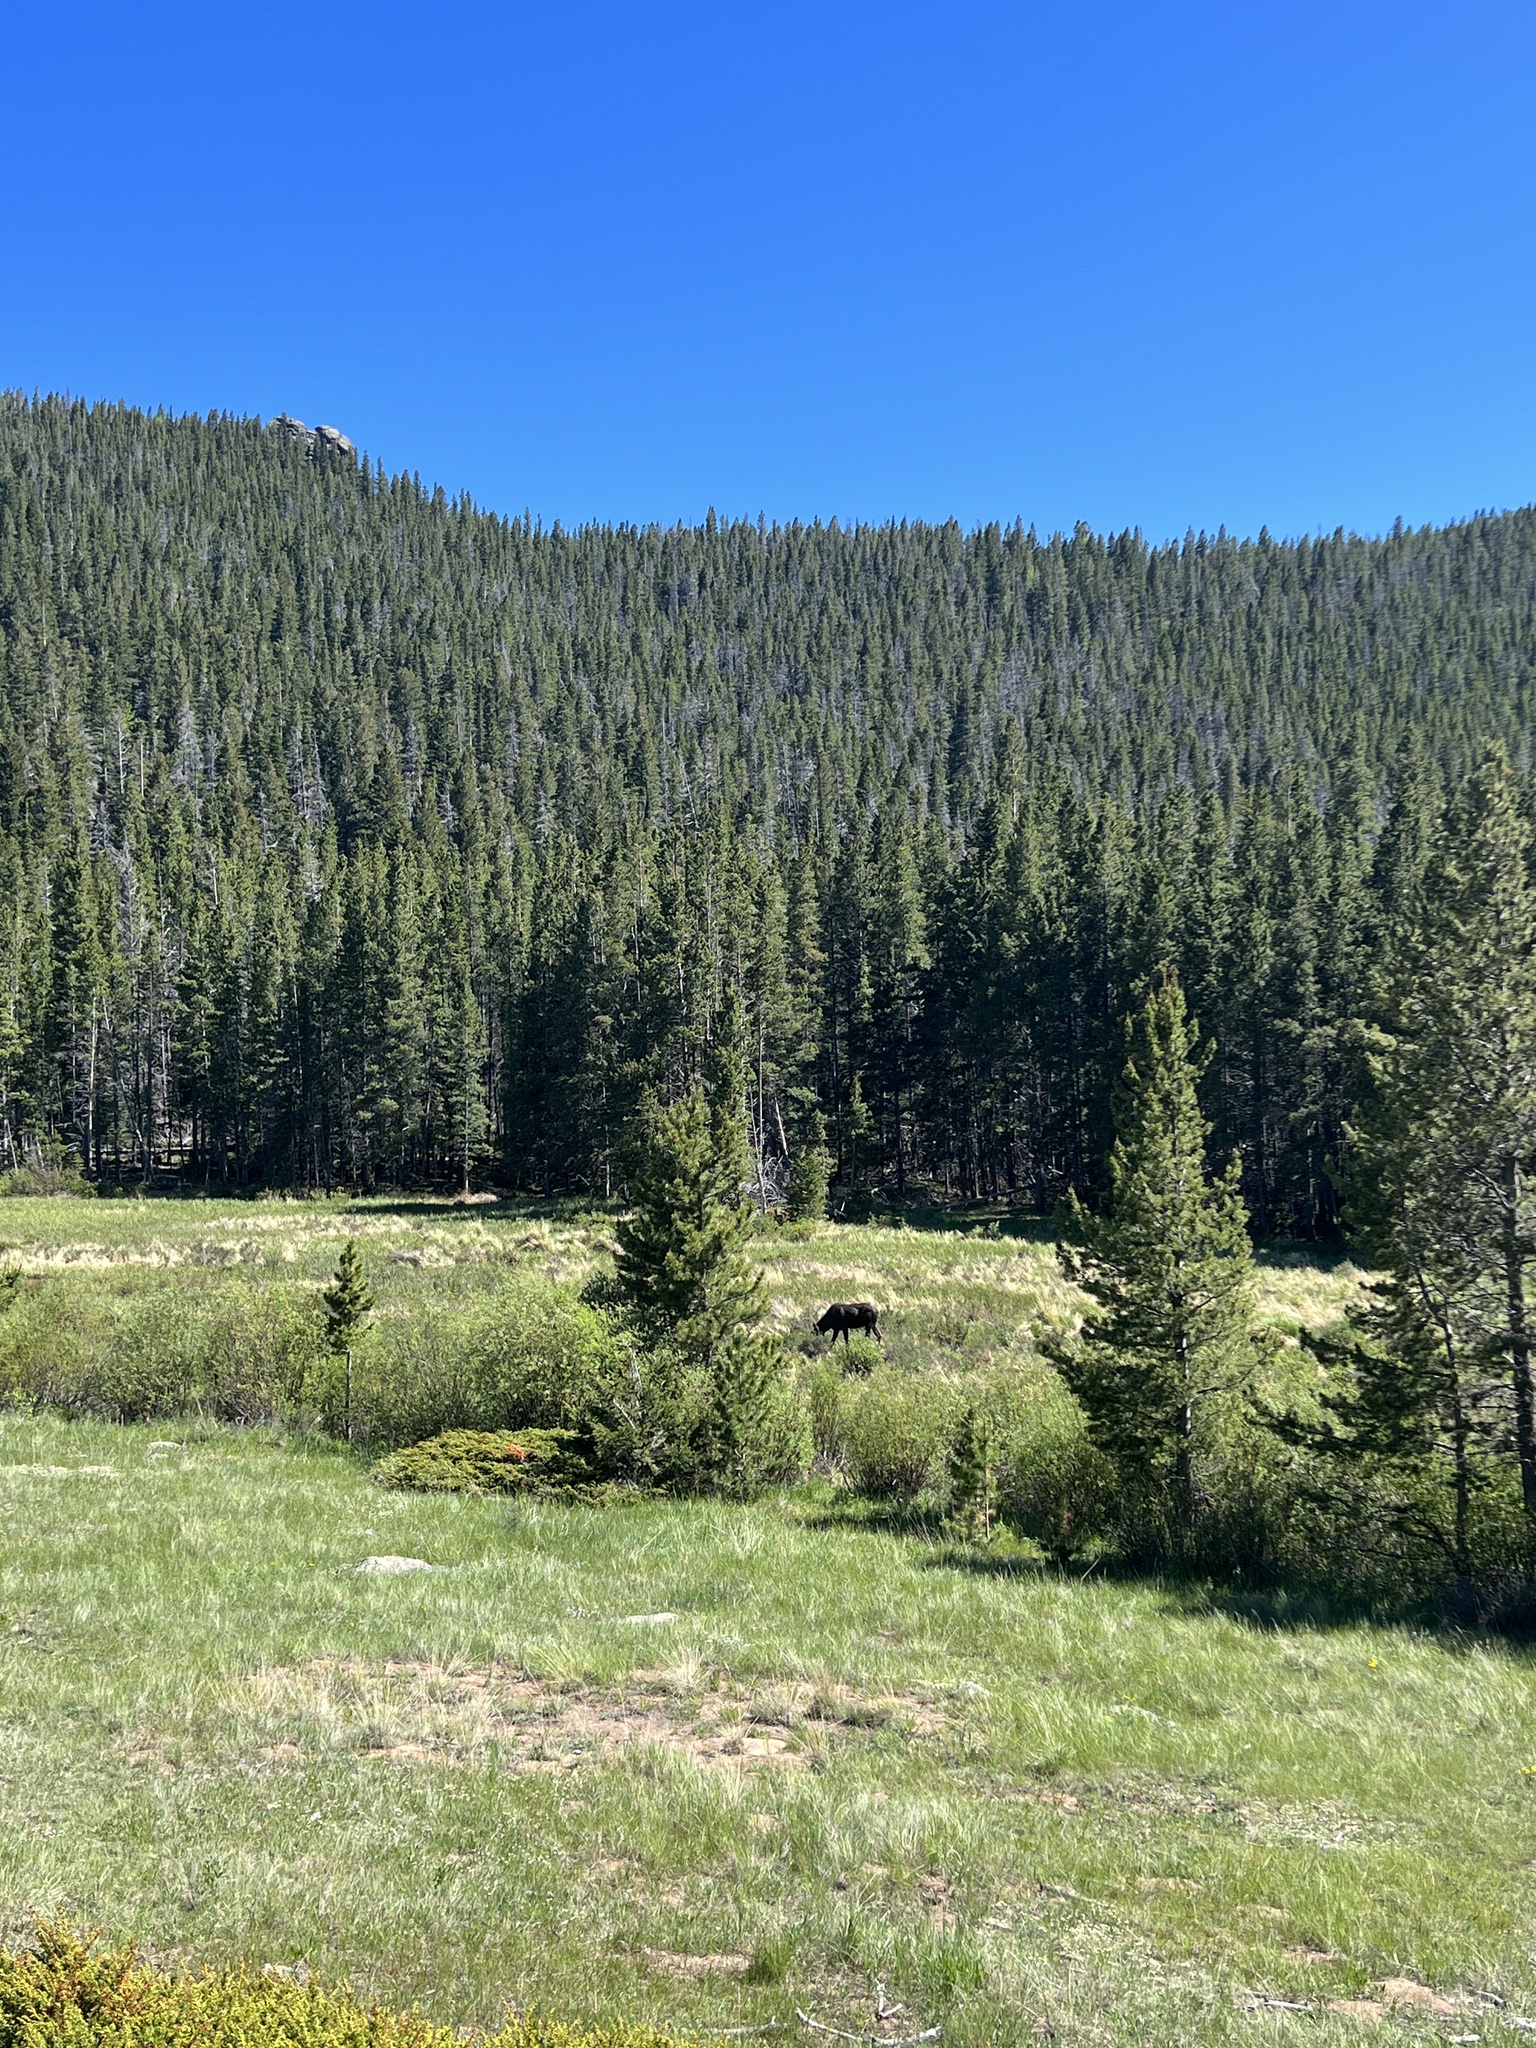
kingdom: Animalia
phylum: Chordata
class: Mammalia
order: Artiodactyla
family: Cervidae
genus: Alces
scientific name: Alces alces
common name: Moose
